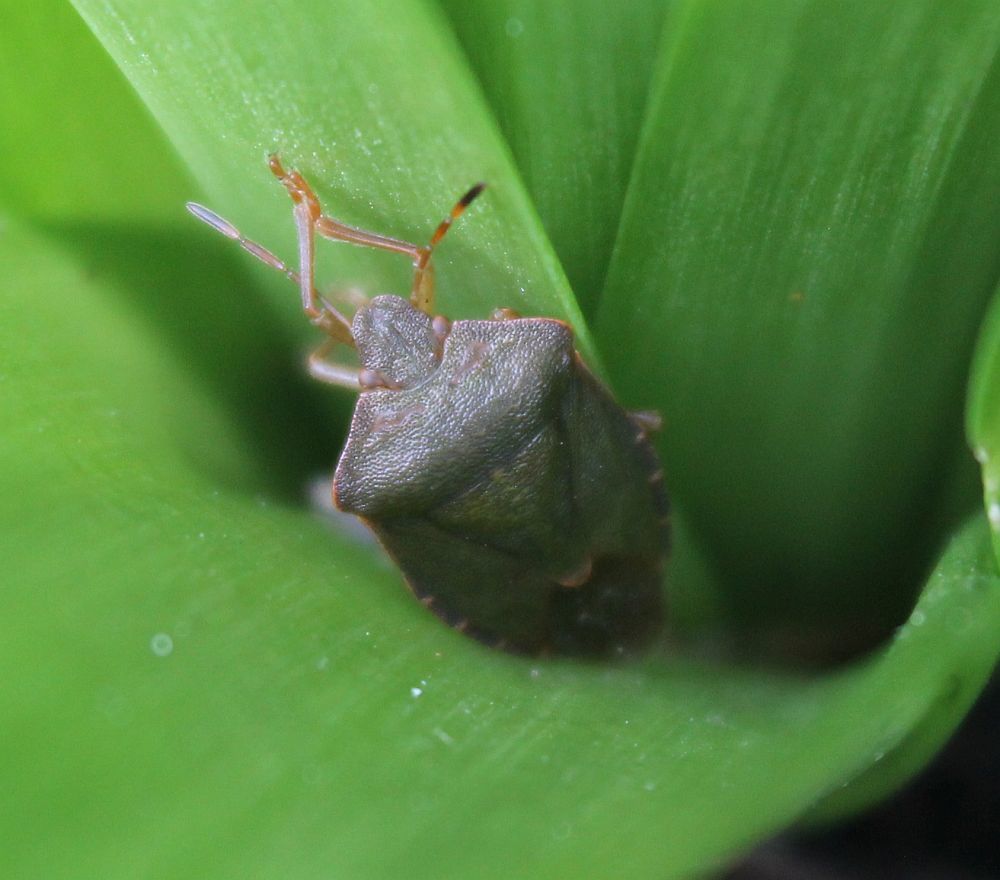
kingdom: Animalia
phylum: Arthropoda
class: Insecta
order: Hemiptera
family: Pentatomidae
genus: Palomena
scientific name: Palomena prasina
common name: Green shieldbug
